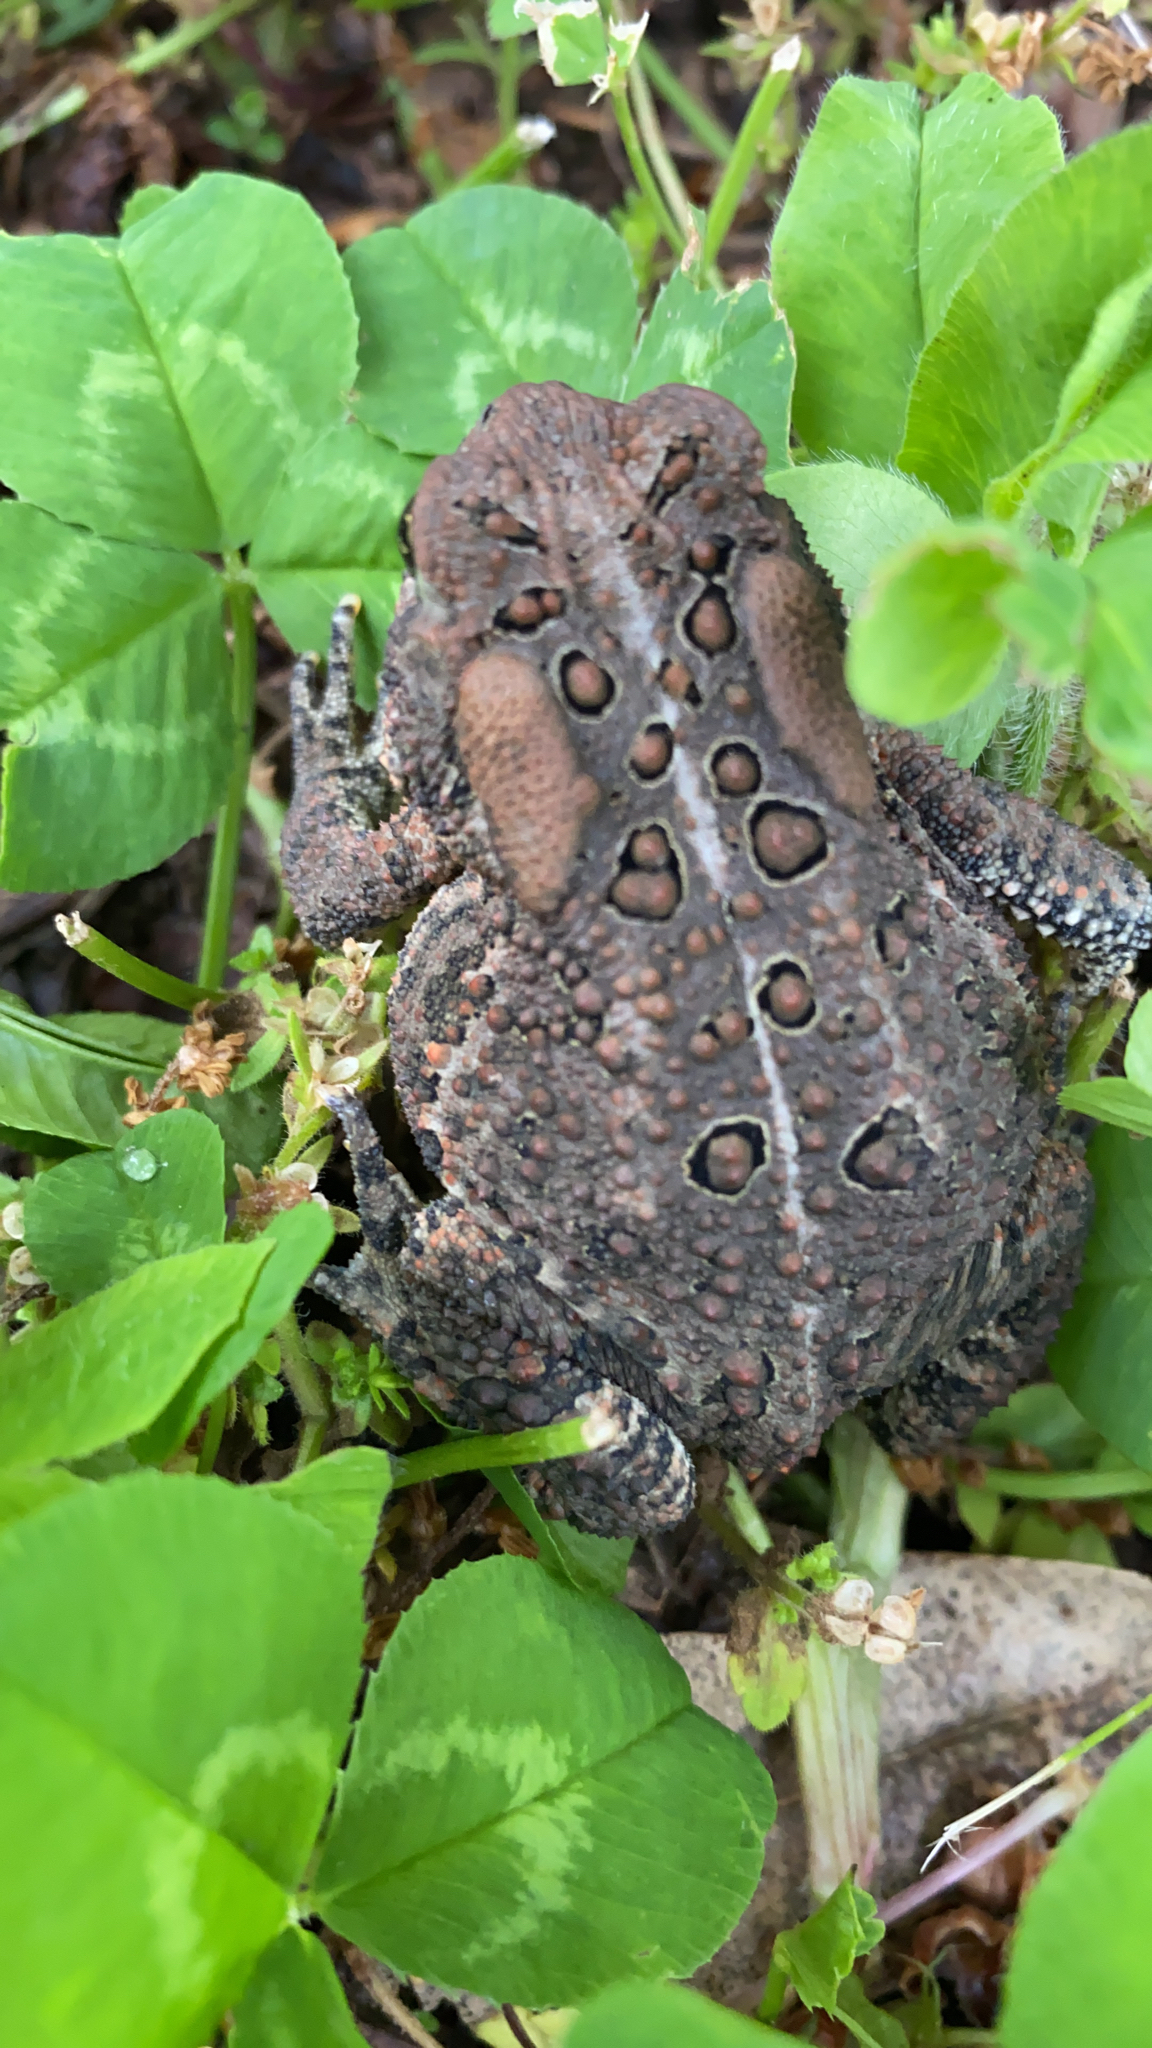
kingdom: Animalia
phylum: Chordata
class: Amphibia
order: Anura
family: Bufonidae
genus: Anaxyrus
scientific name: Anaxyrus americanus
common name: American toad
